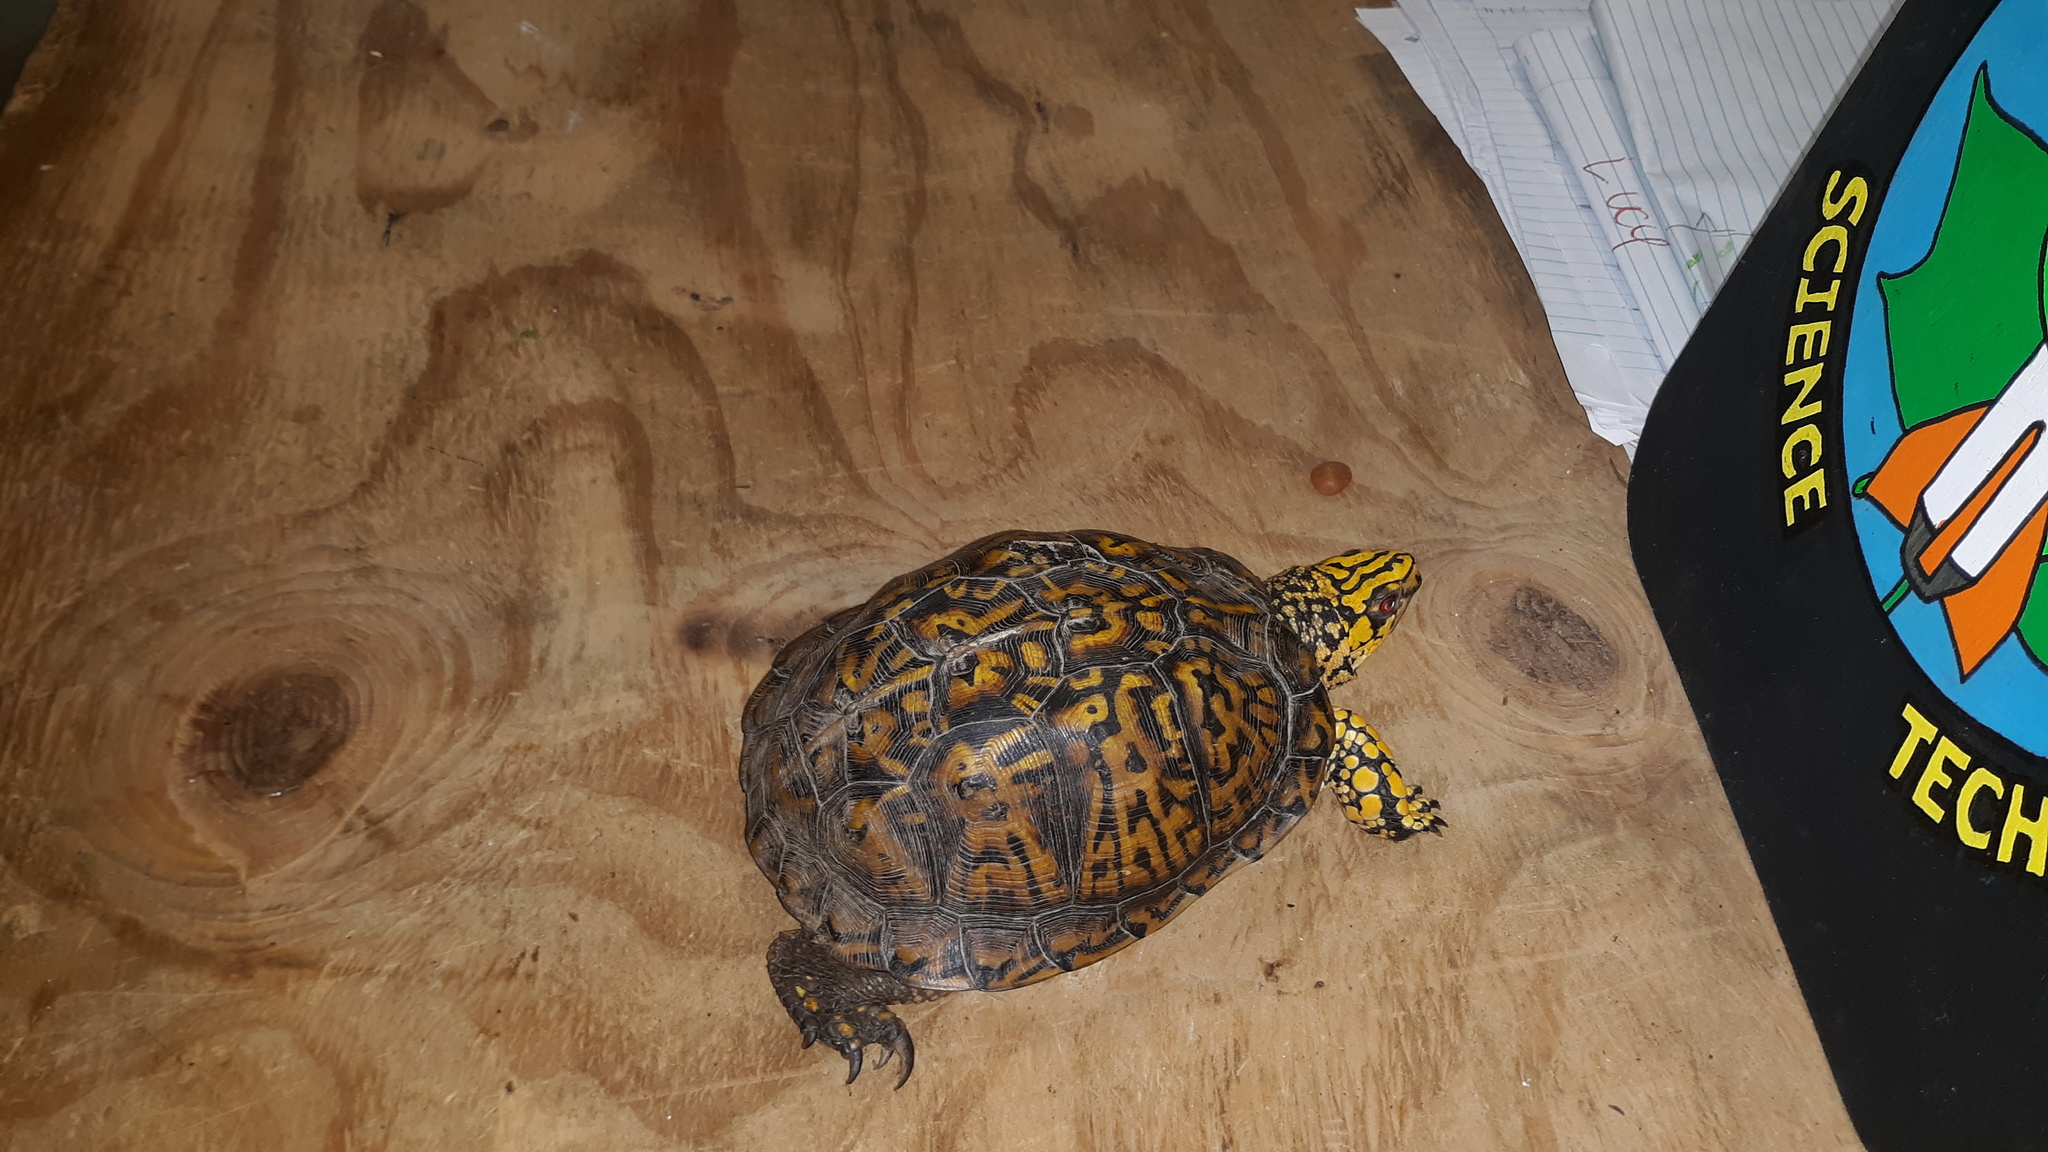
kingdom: Animalia
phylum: Chordata
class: Testudines
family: Emydidae
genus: Terrapene
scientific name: Terrapene carolina
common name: Common box turtle
